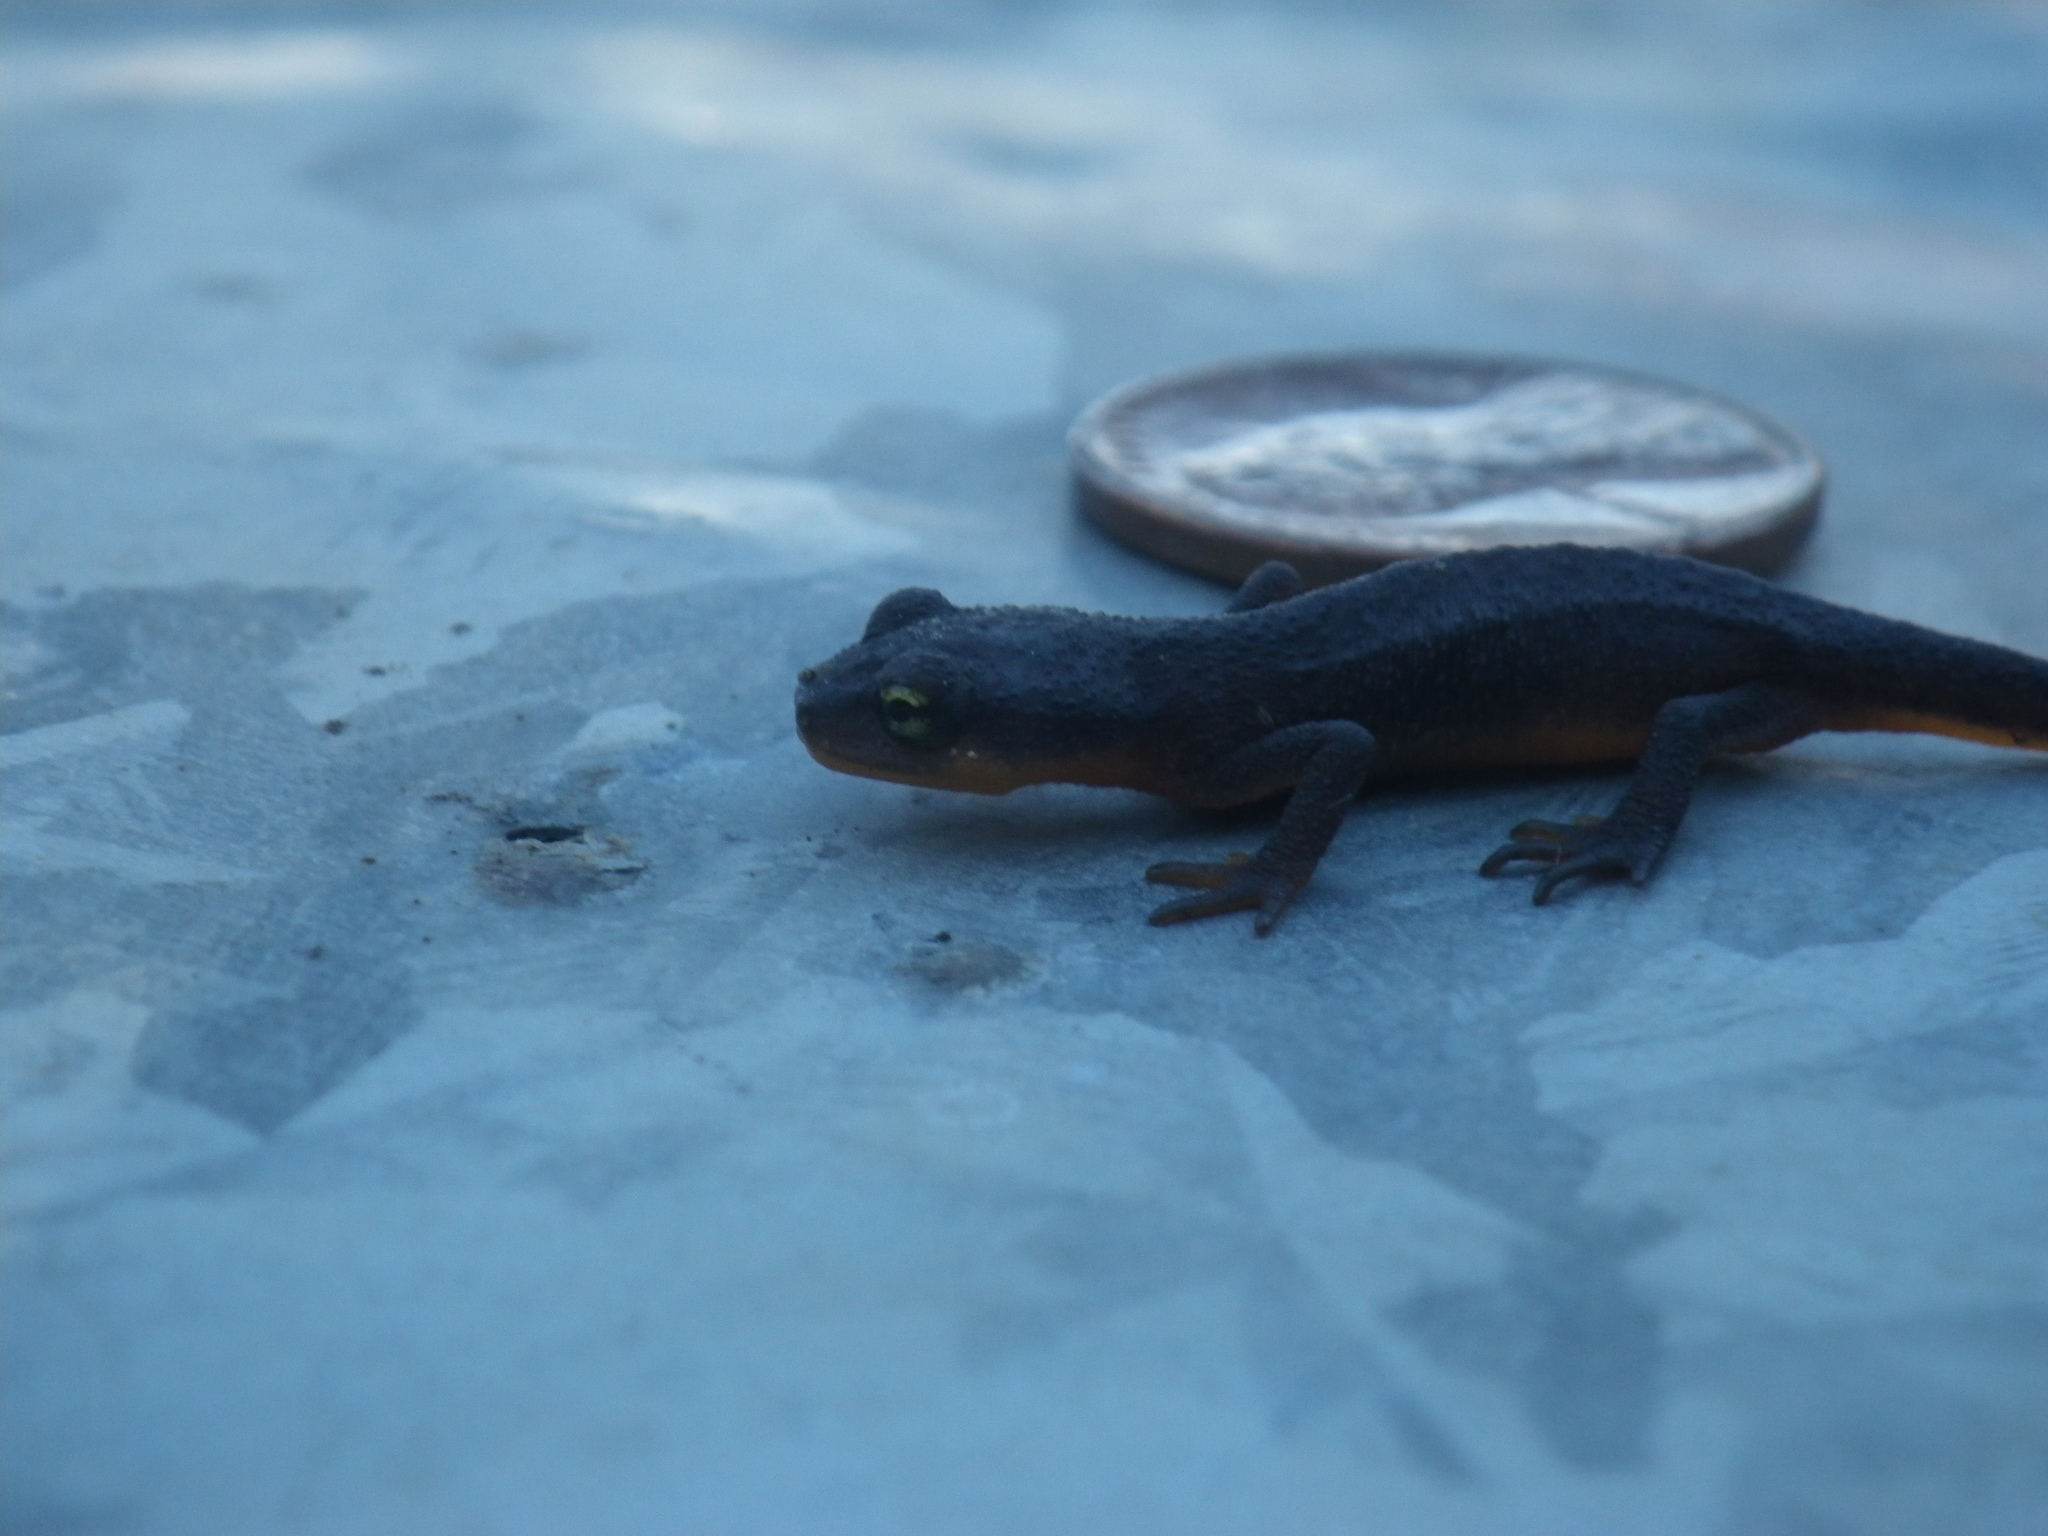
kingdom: Animalia
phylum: Chordata
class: Amphibia
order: Caudata
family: Salamandridae
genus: Taricha
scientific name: Taricha torosa
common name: California newt
